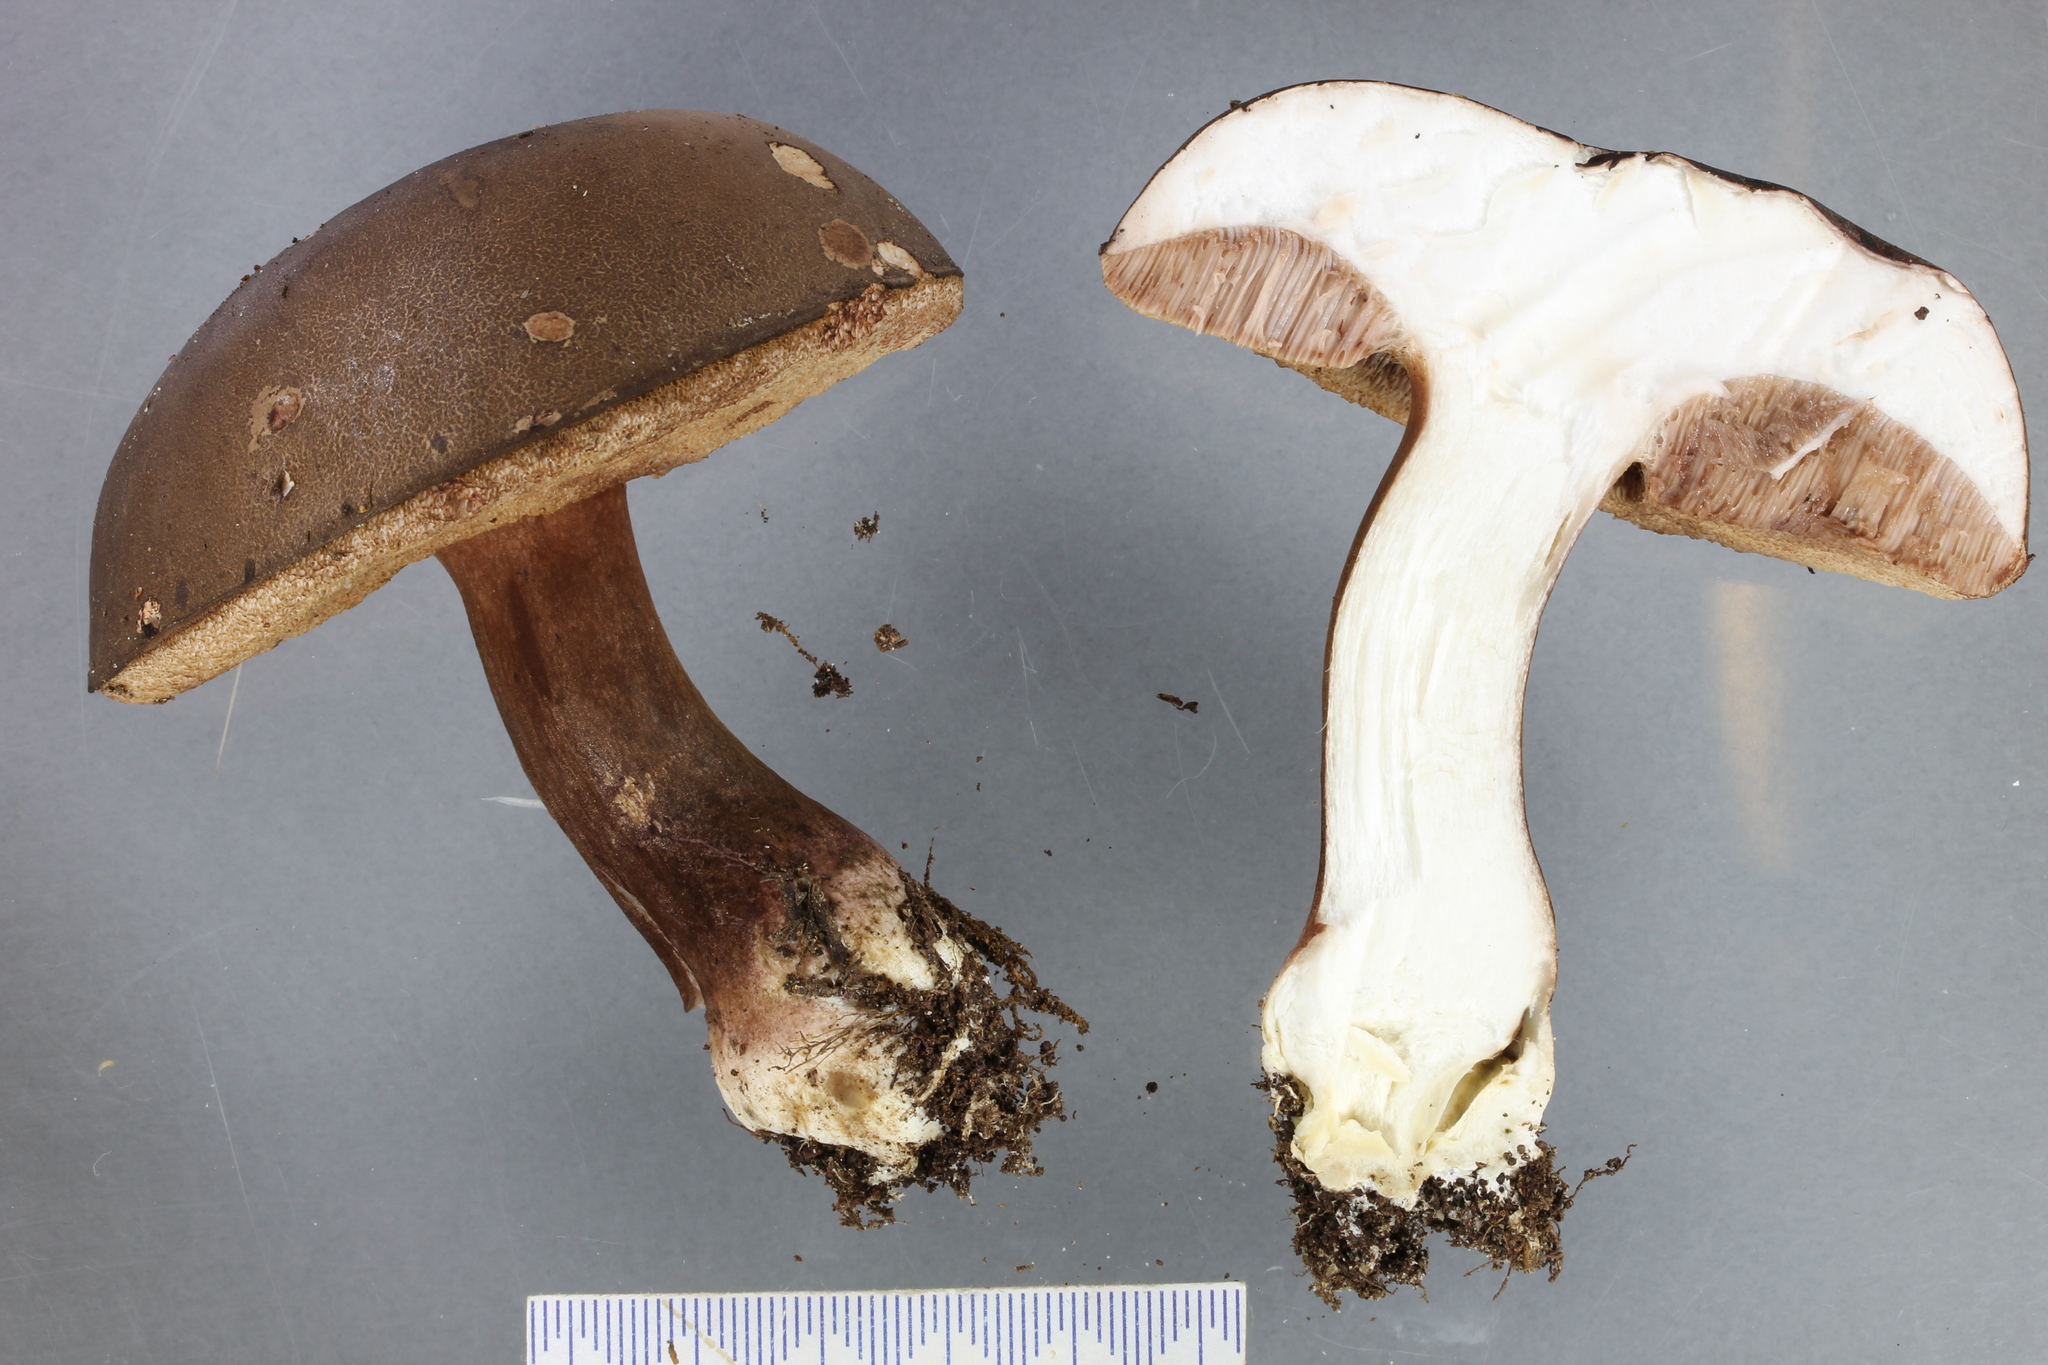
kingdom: Fungi
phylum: Basidiomycota
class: Agaricomycetes
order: Boletales
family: Boletaceae
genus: Porphyrellus
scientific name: Porphyrellus formosus
